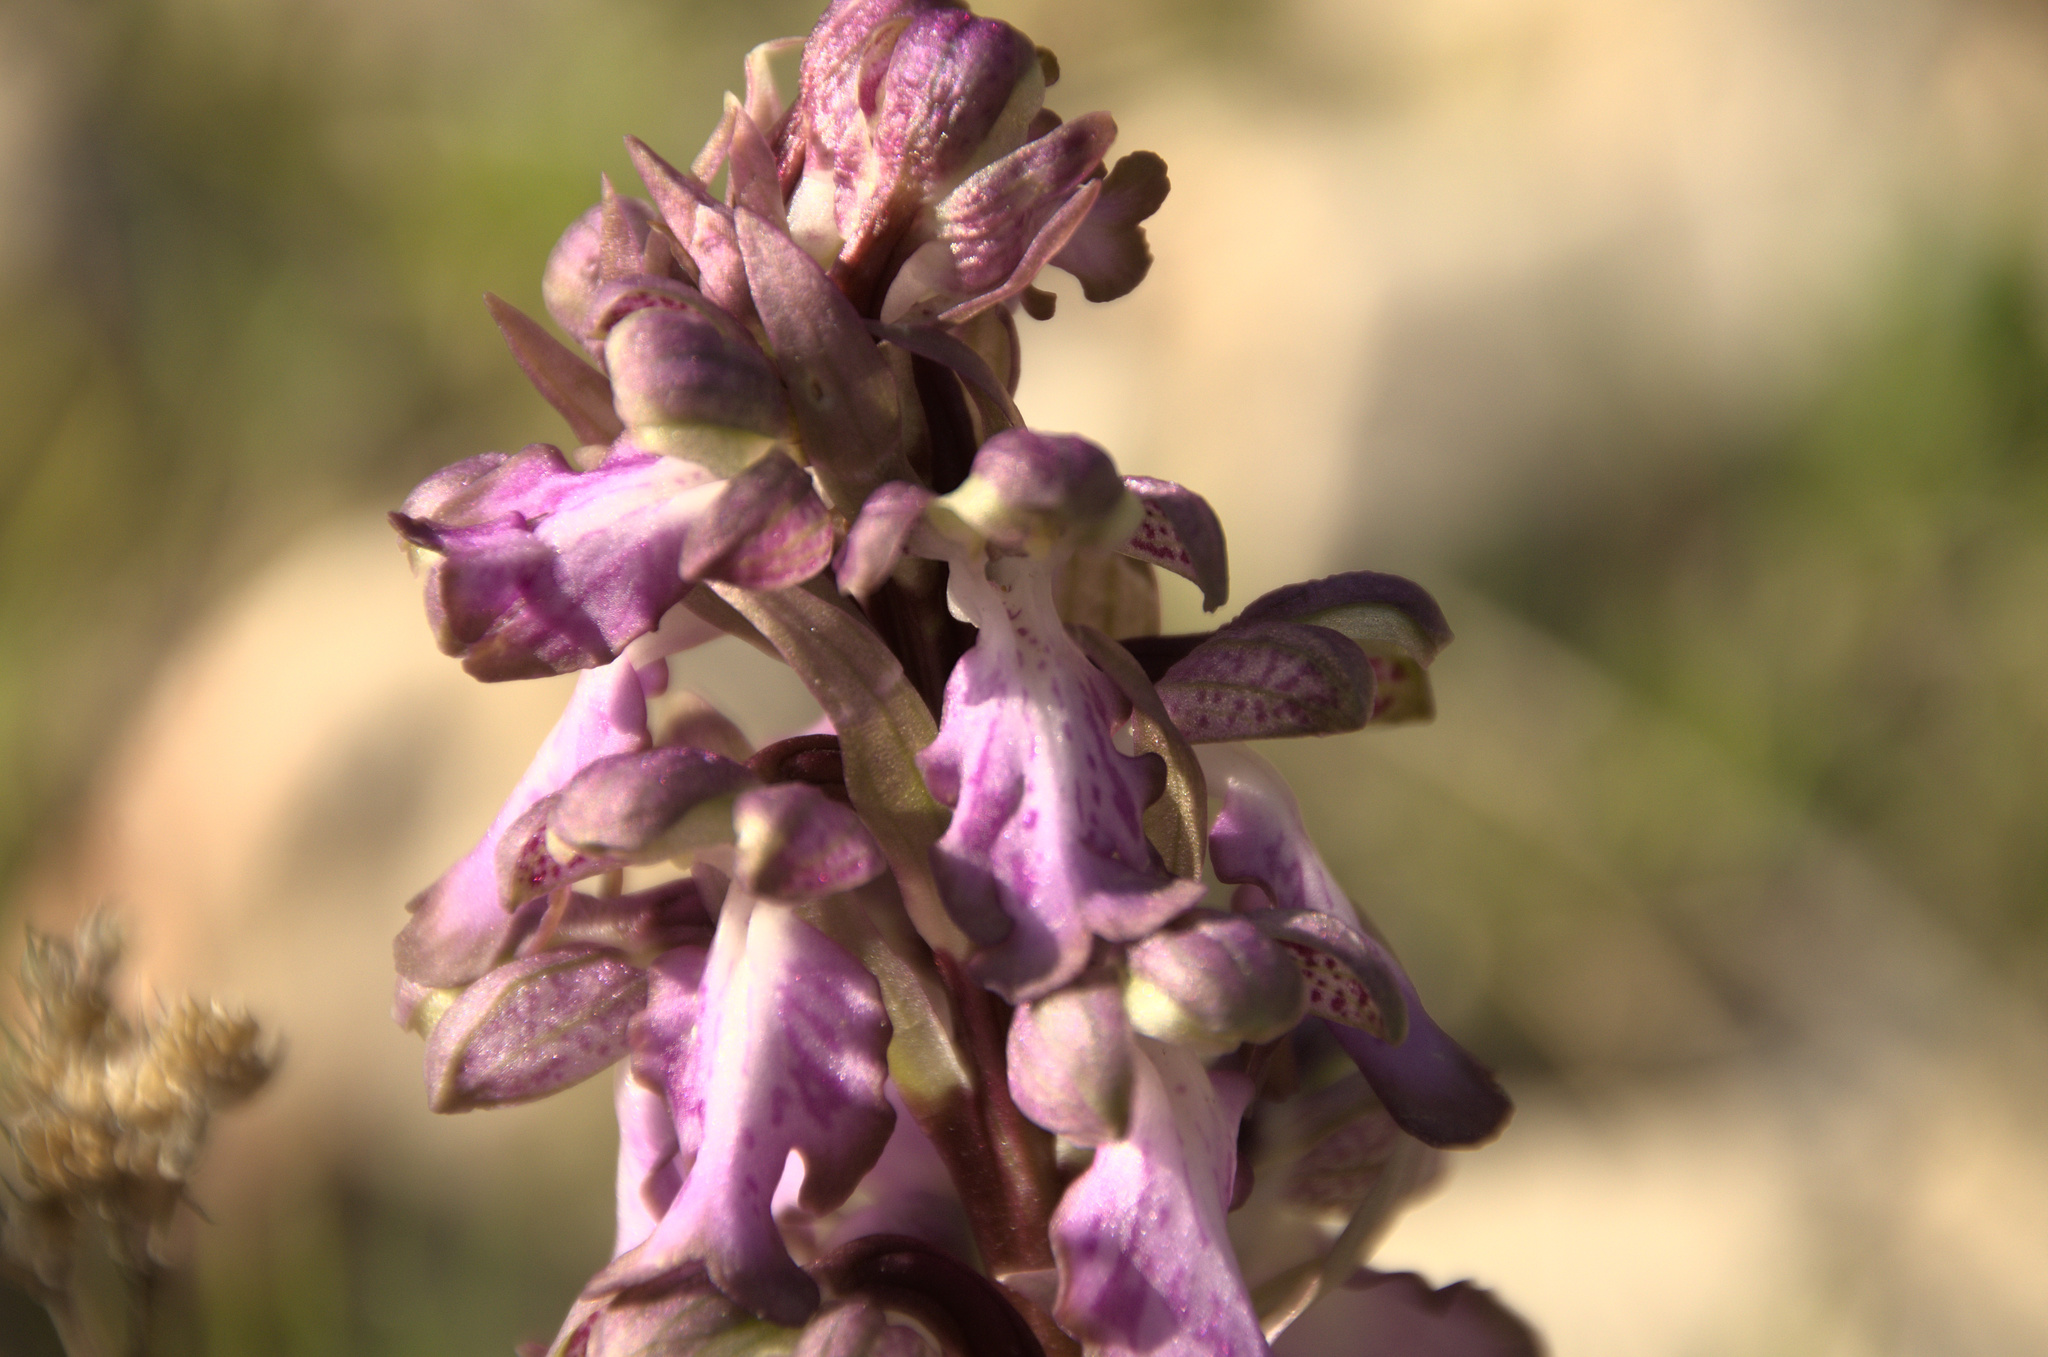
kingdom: Plantae
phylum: Tracheophyta
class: Liliopsida
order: Asparagales
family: Orchidaceae
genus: Himantoglossum
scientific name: Himantoglossum robertianum
